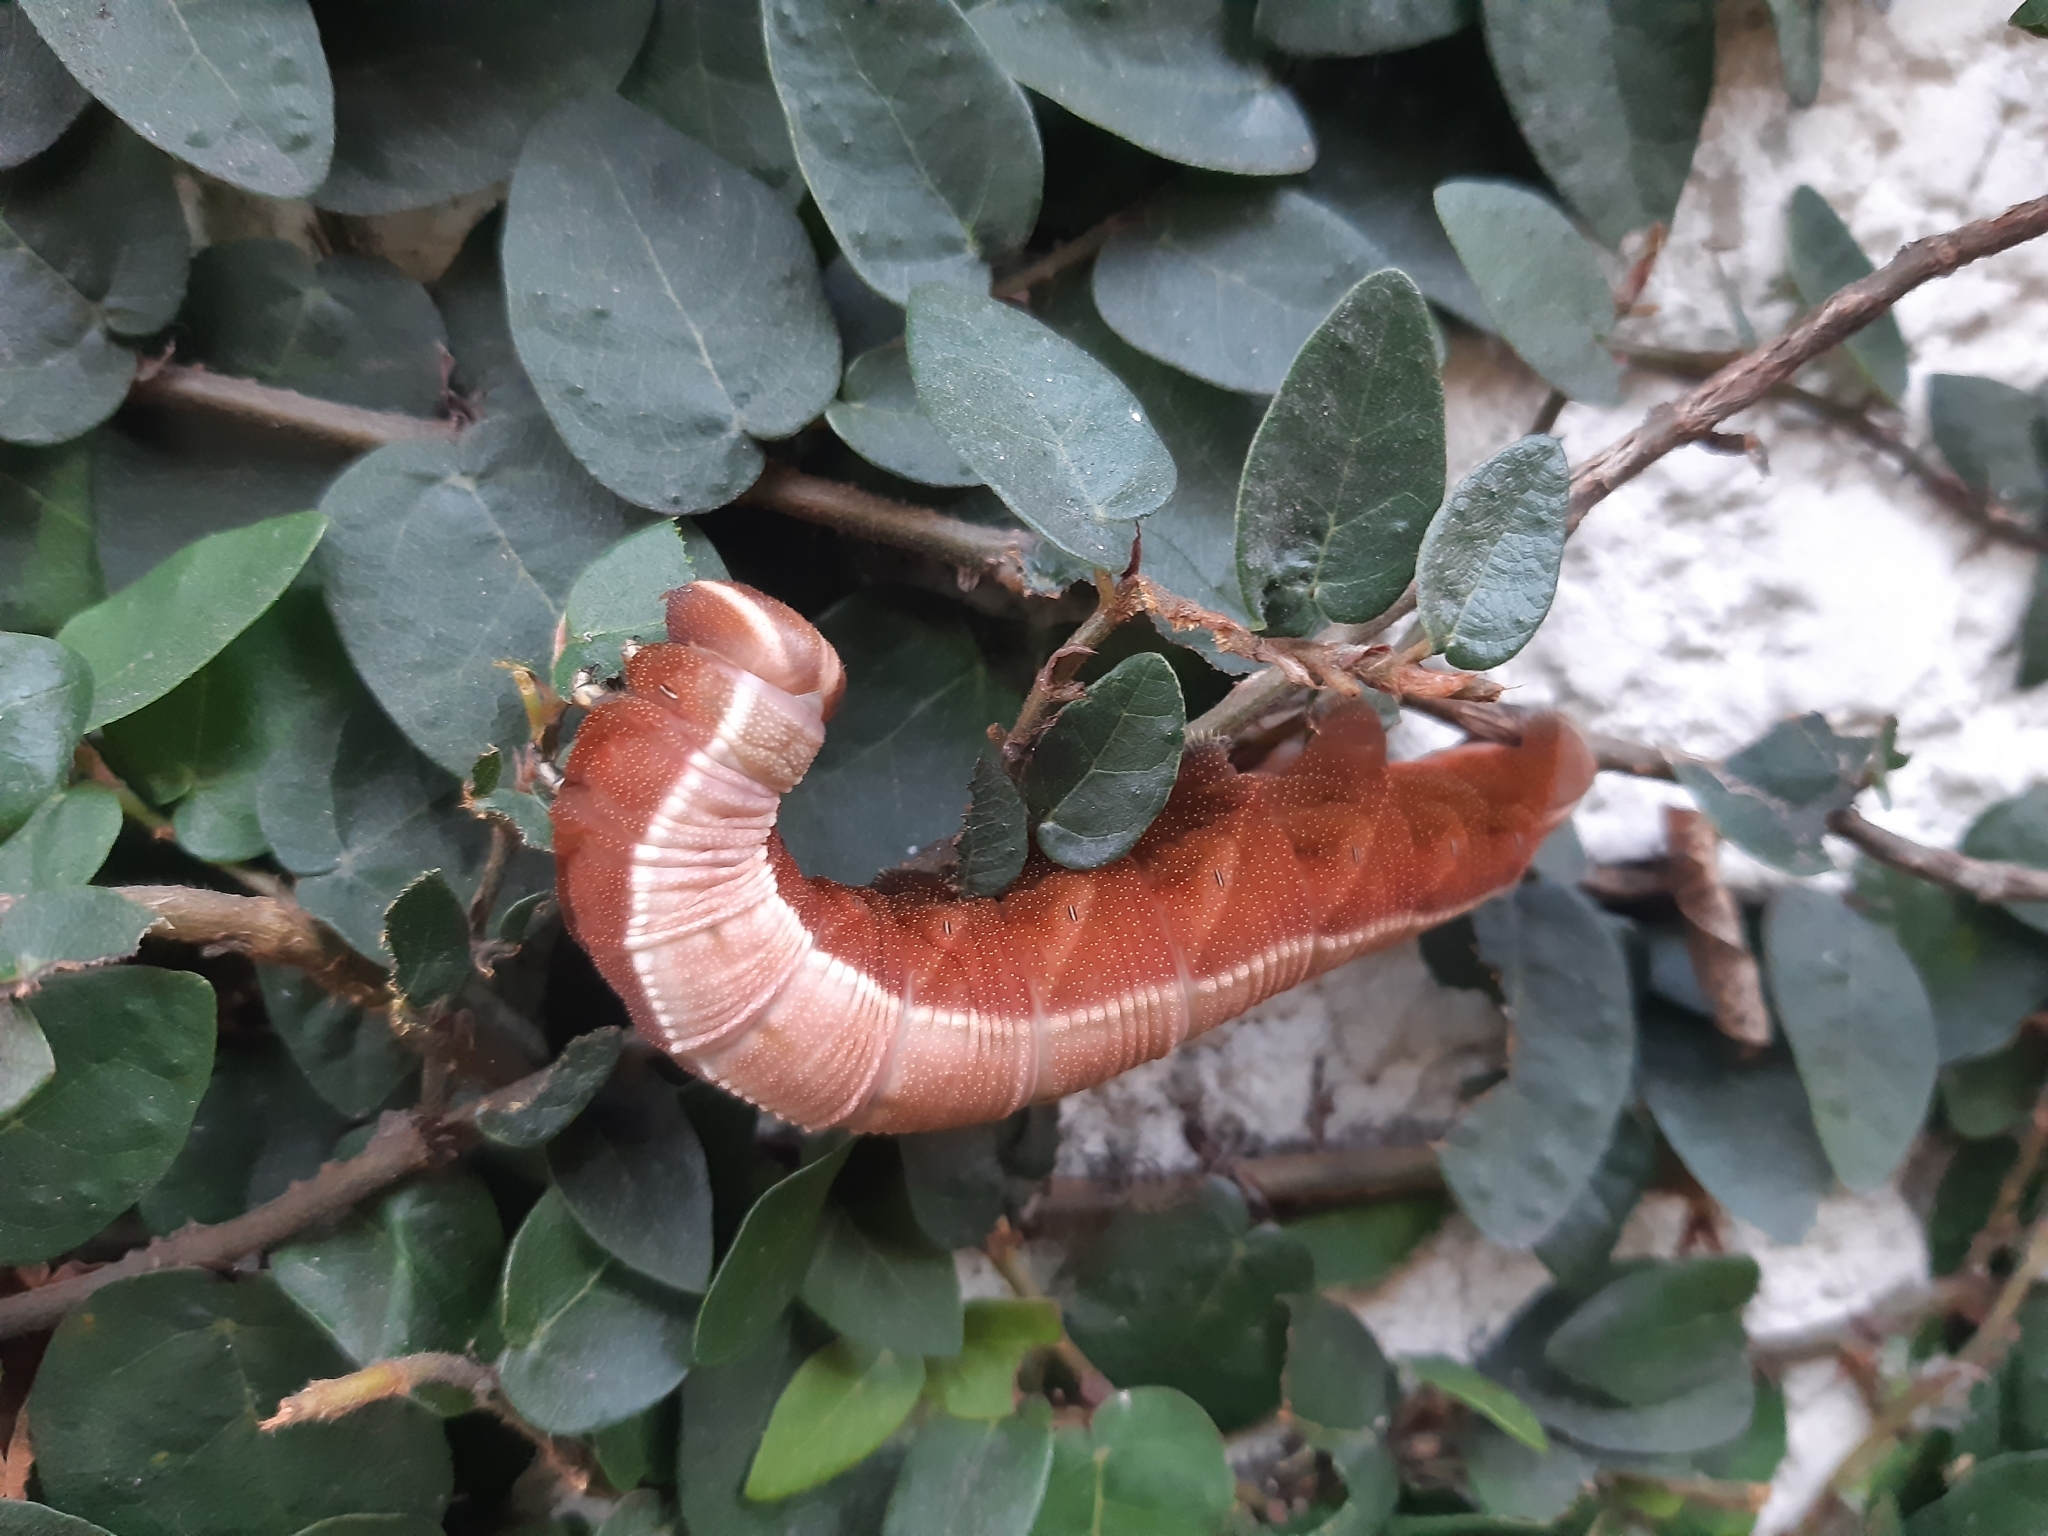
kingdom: Animalia
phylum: Arthropoda
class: Insecta
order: Lepidoptera
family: Sphingidae
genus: Pachylia
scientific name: Pachylia syces
